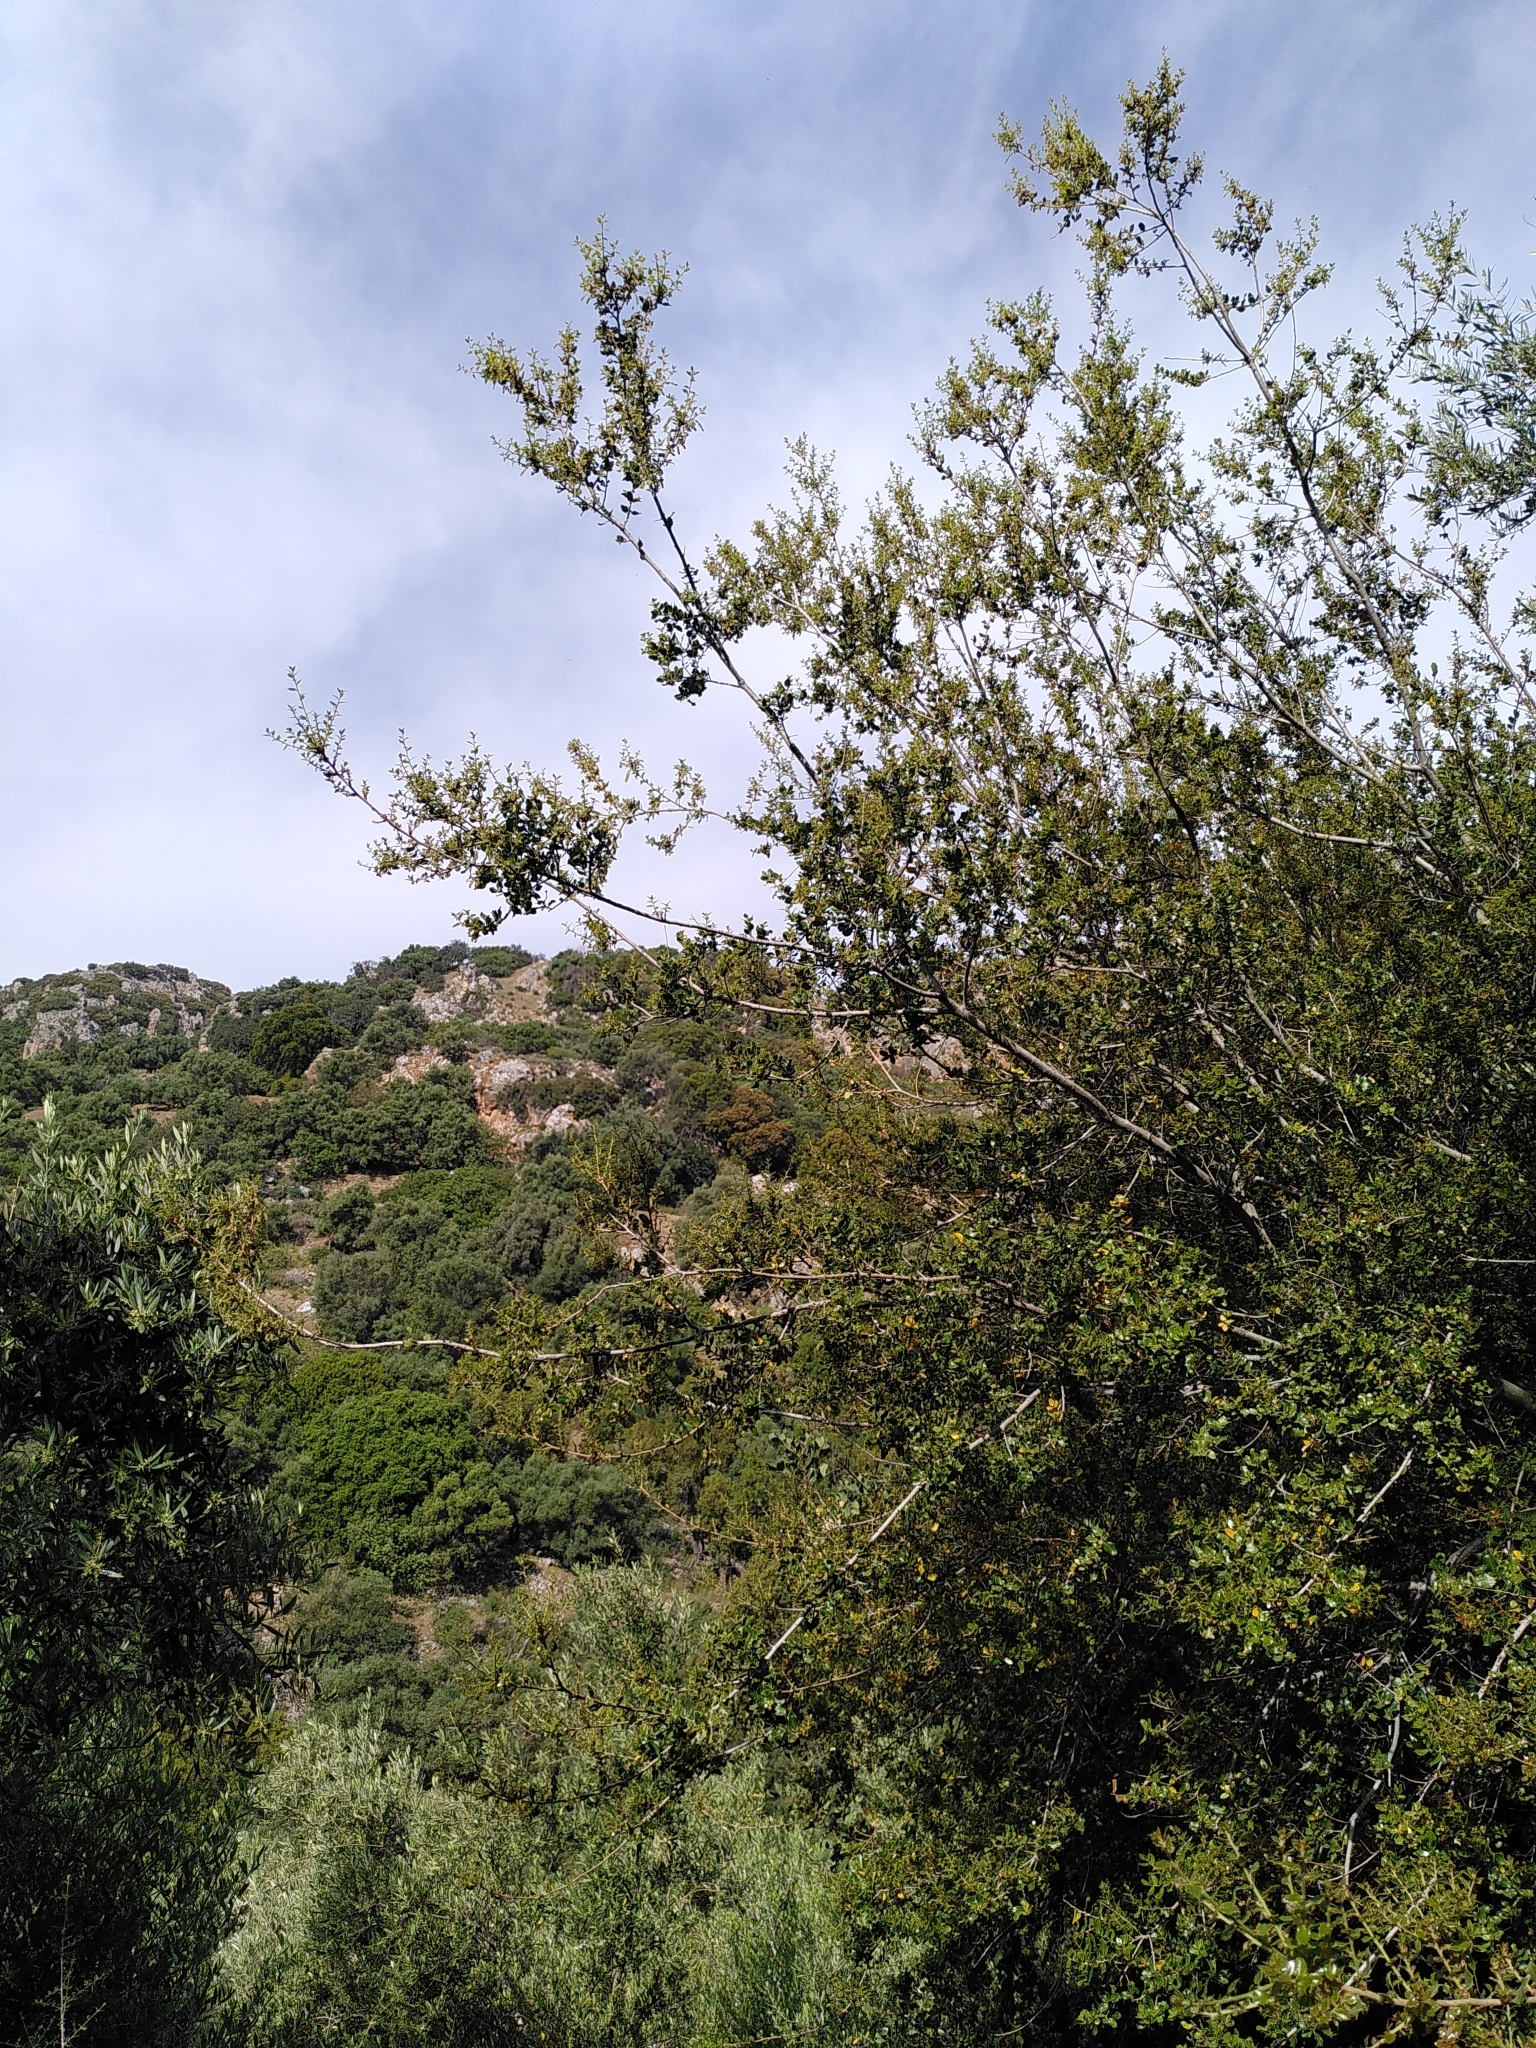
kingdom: Plantae
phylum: Tracheophyta
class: Magnoliopsida
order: Fagales
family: Fagaceae
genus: Quercus
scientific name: Quercus coccifera
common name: Kermes oak
